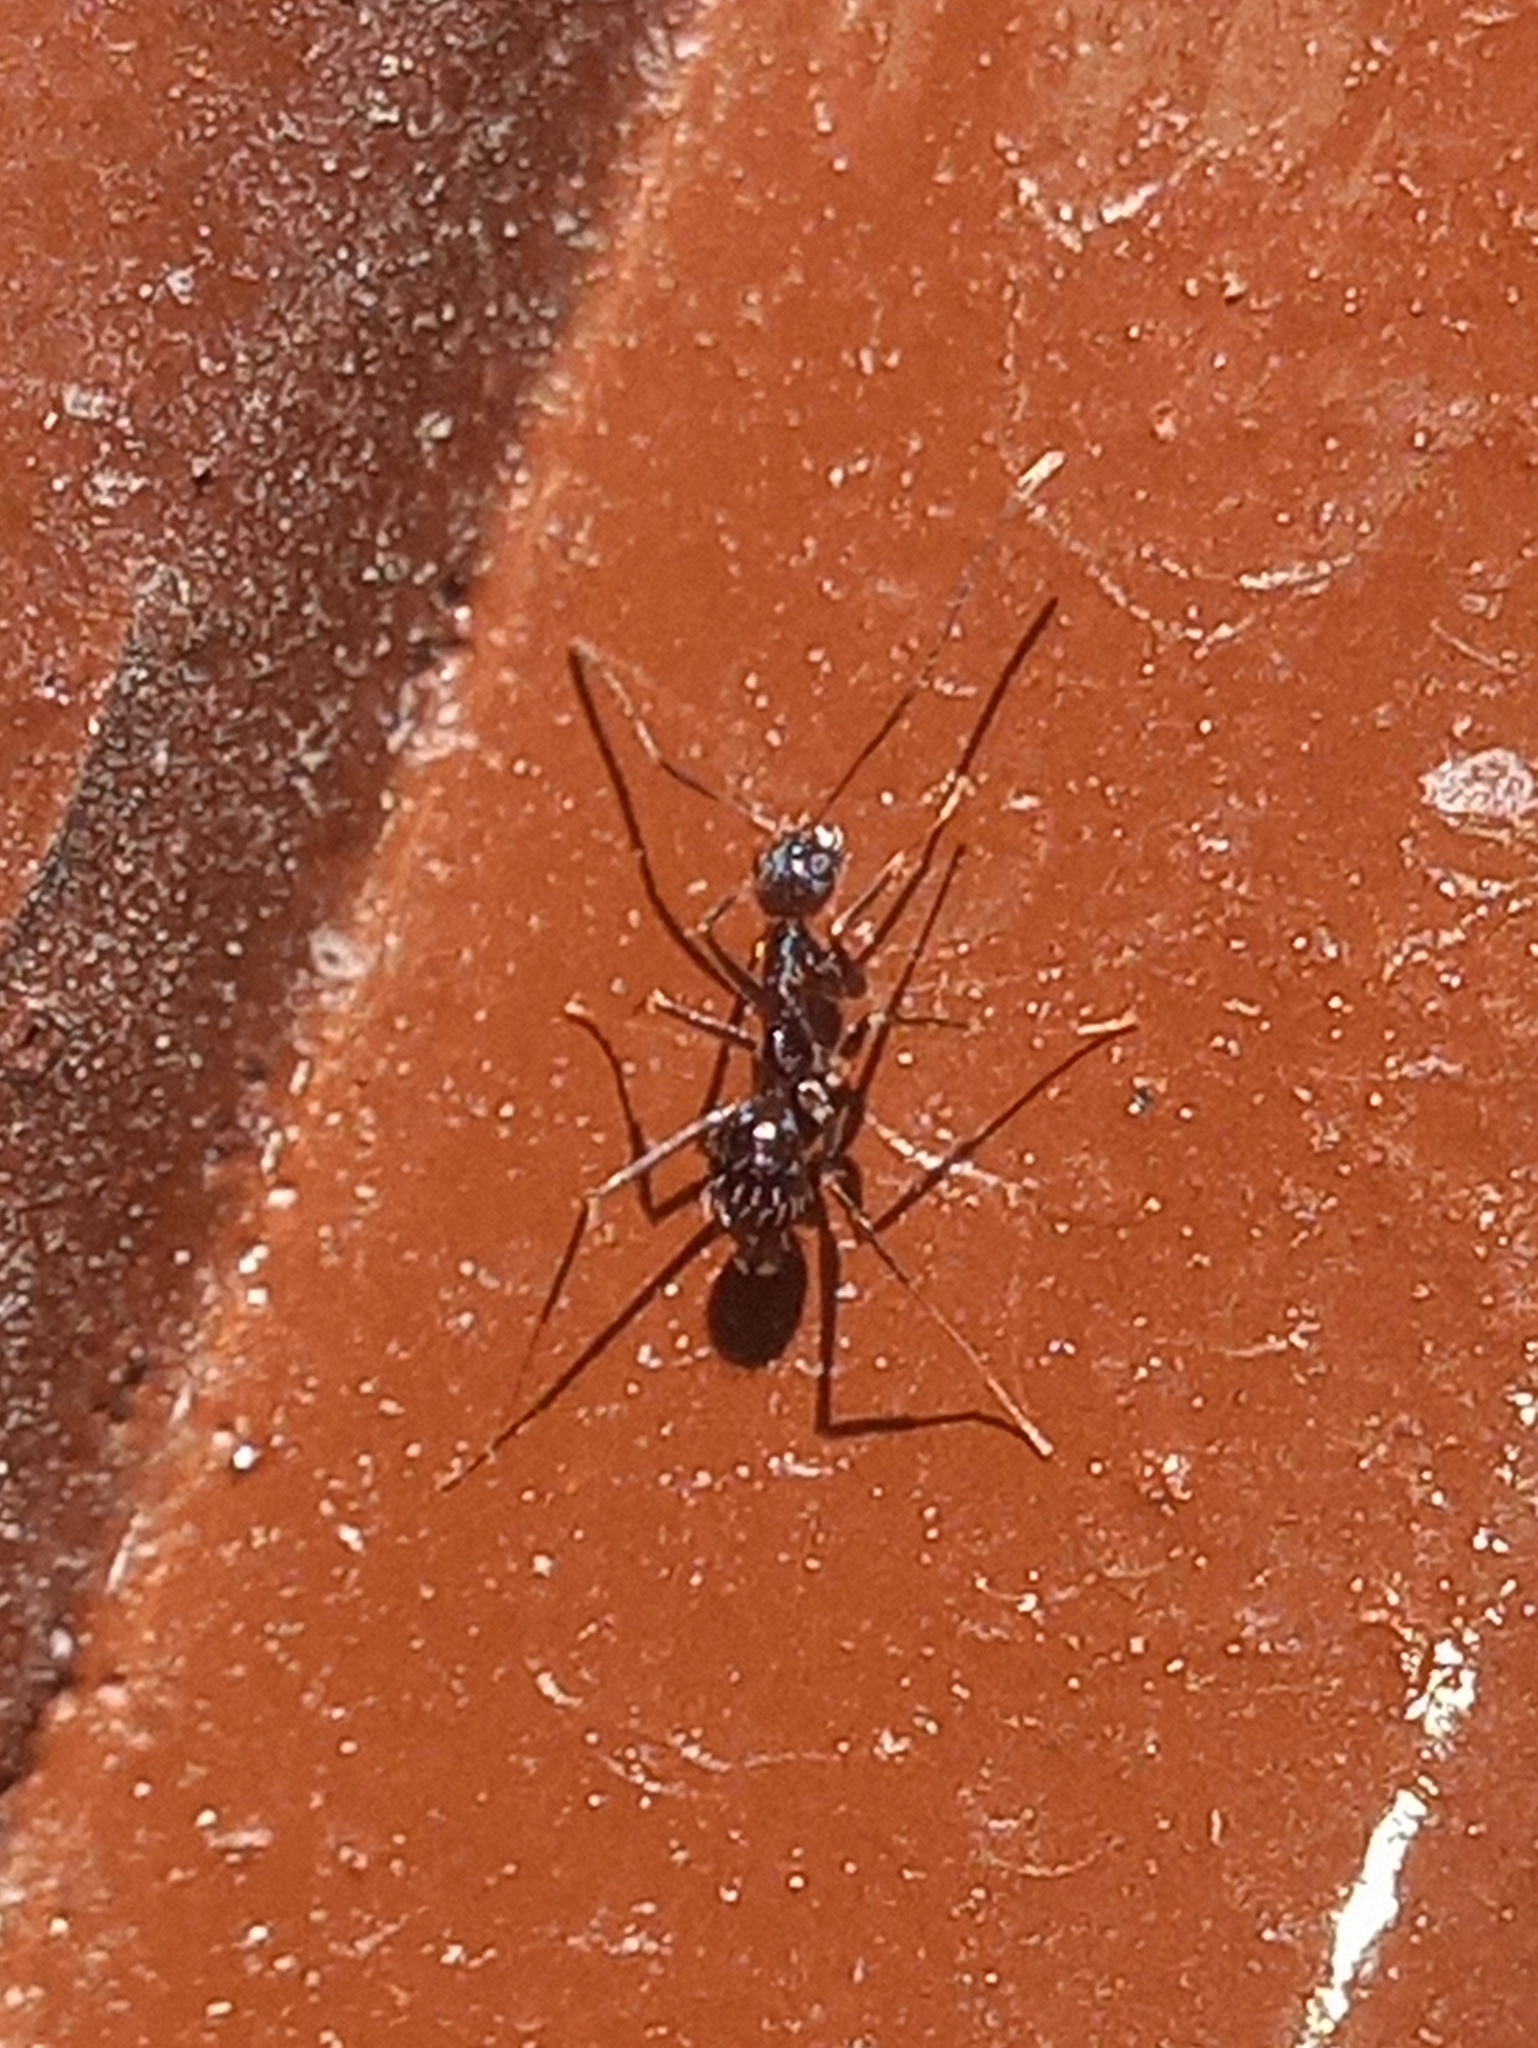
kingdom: Animalia
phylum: Arthropoda
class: Insecta
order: Hymenoptera
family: Formicidae
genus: Paratrechina
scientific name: Paratrechina longicornis
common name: Longhorned crazy ant
